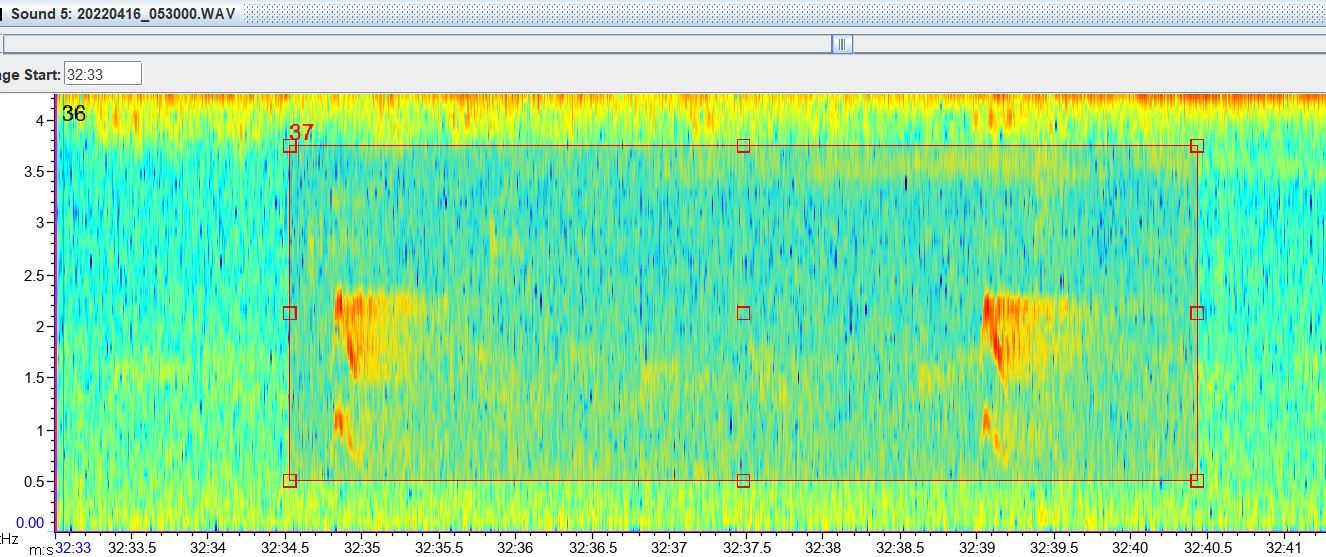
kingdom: Animalia
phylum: Chordata
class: Aves
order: Falconiformes
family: Falconidae
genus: Micrastur
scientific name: Micrastur ruficollis
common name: Barred forest-falcon
